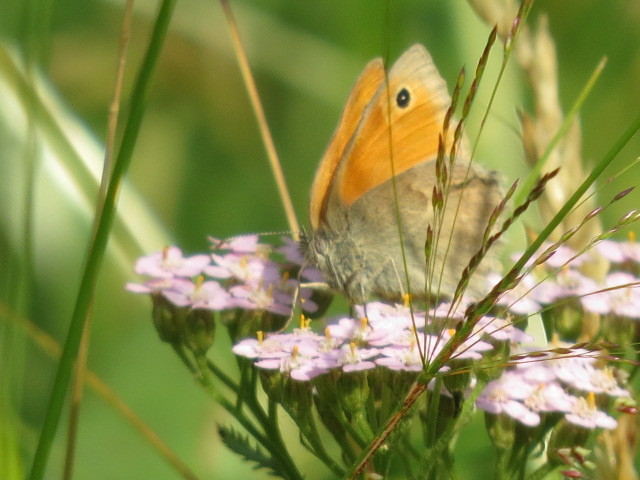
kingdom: Animalia
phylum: Arthropoda
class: Insecta
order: Lepidoptera
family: Nymphalidae
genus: Coenonympha
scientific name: Coenonympha pamphilus
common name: Small heath
